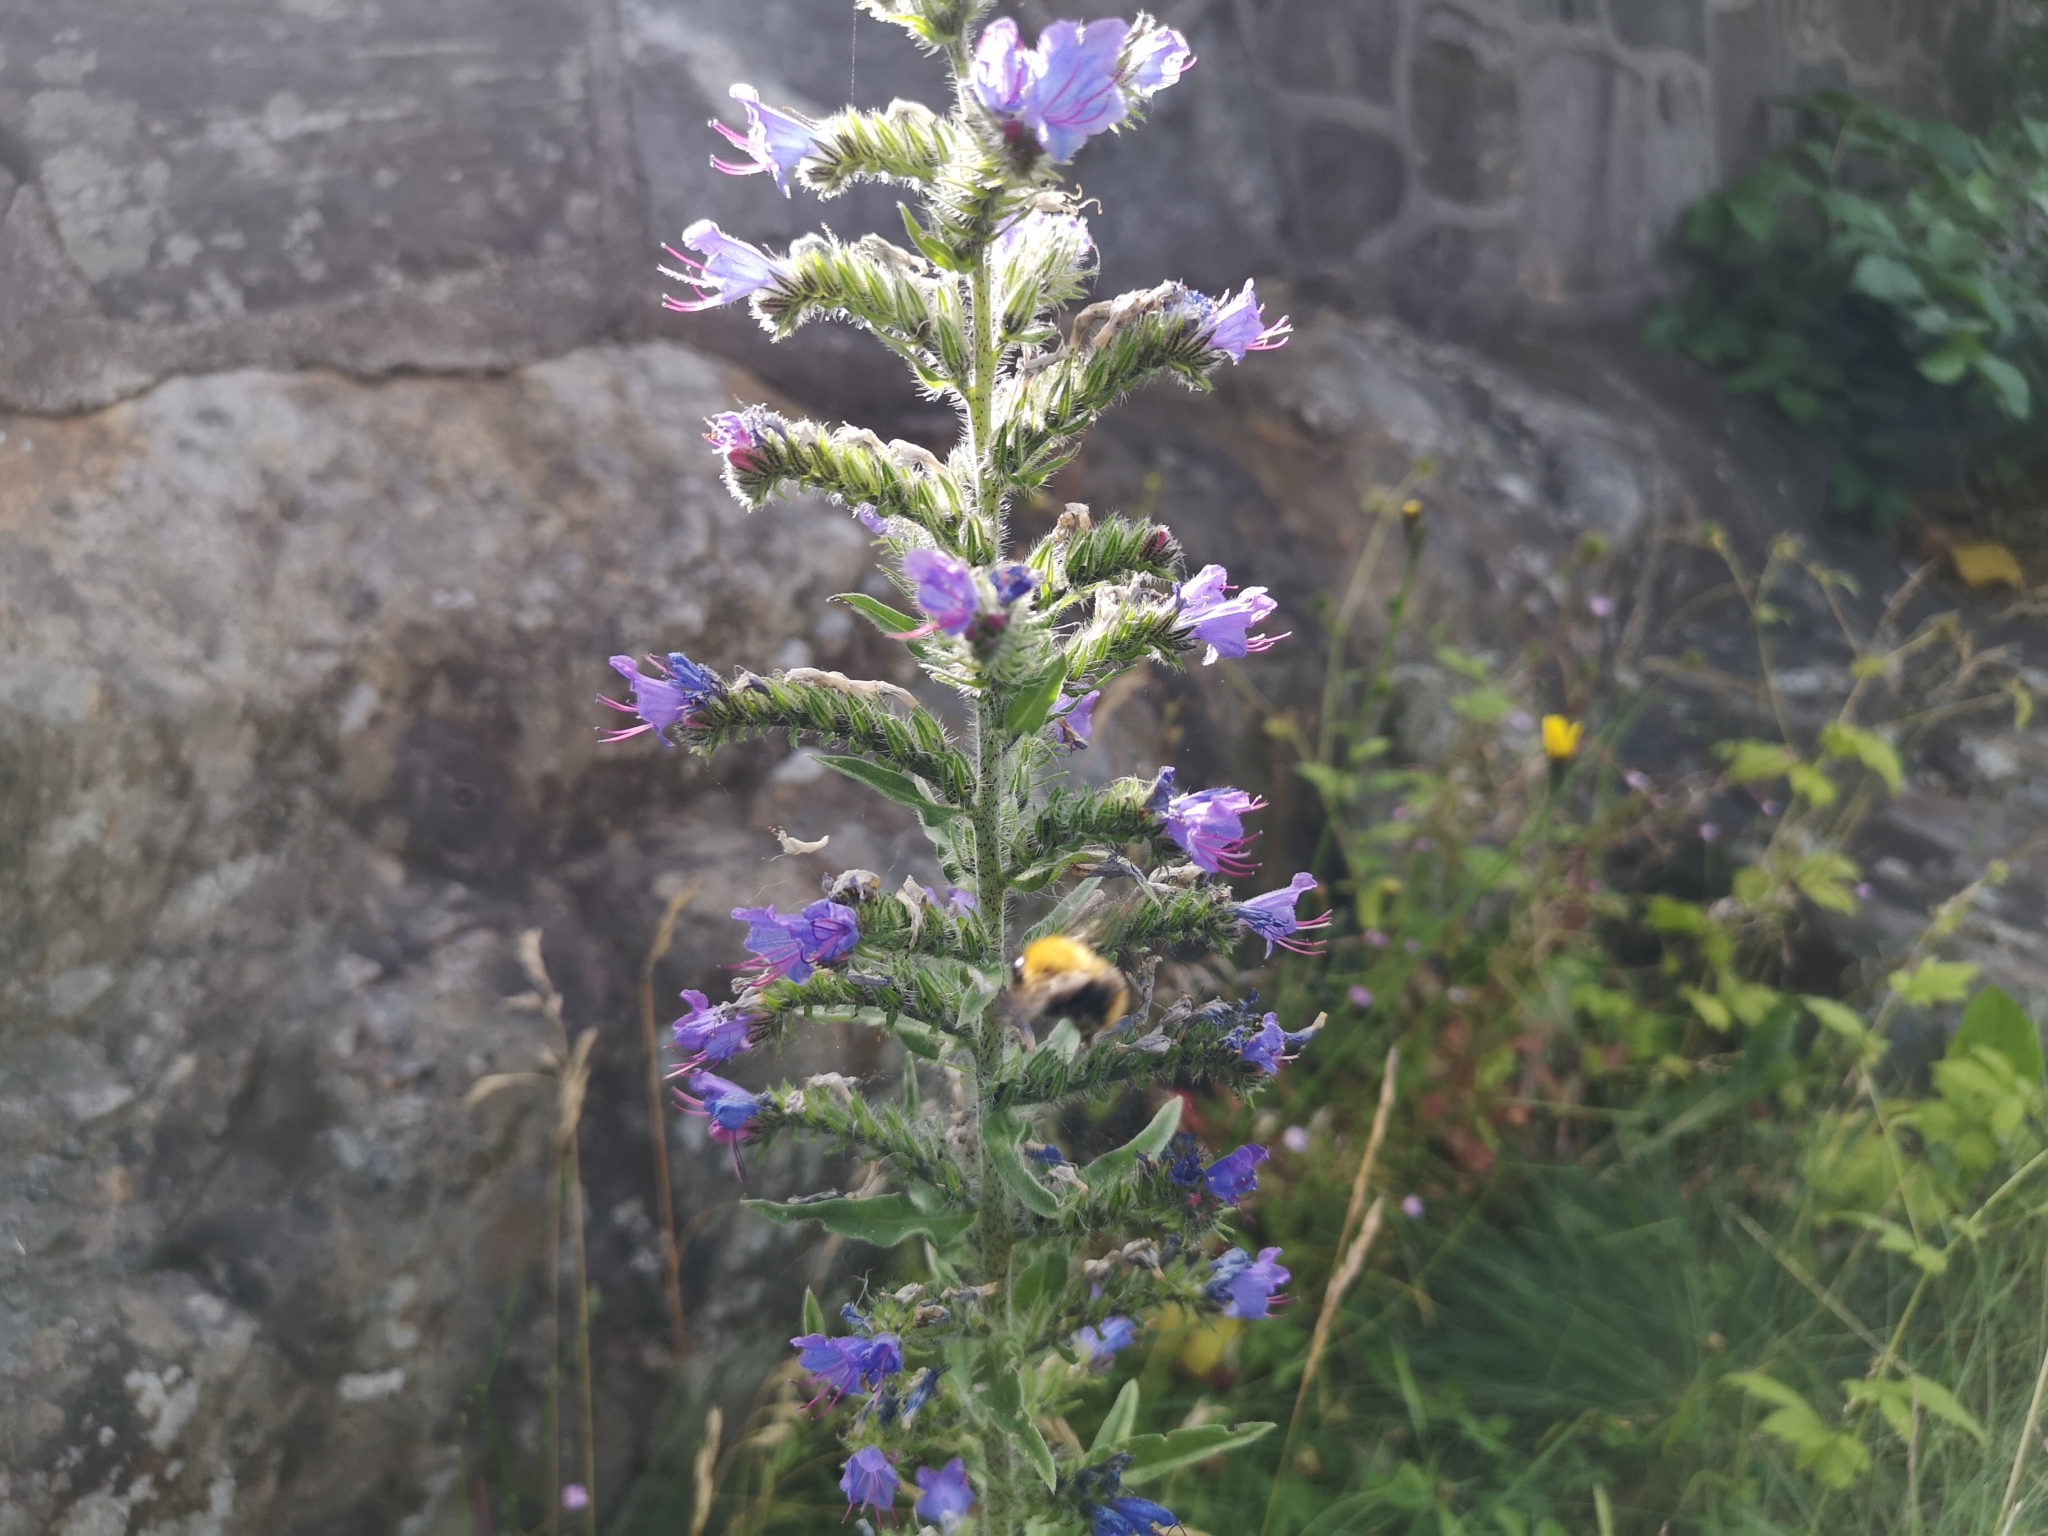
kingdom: Plantae
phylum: Tracheophyta
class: Magnoliopsida
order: Boraginales
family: Boraginaceae
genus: Echium
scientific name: Echium vulgare
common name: Common viper's bugloss
